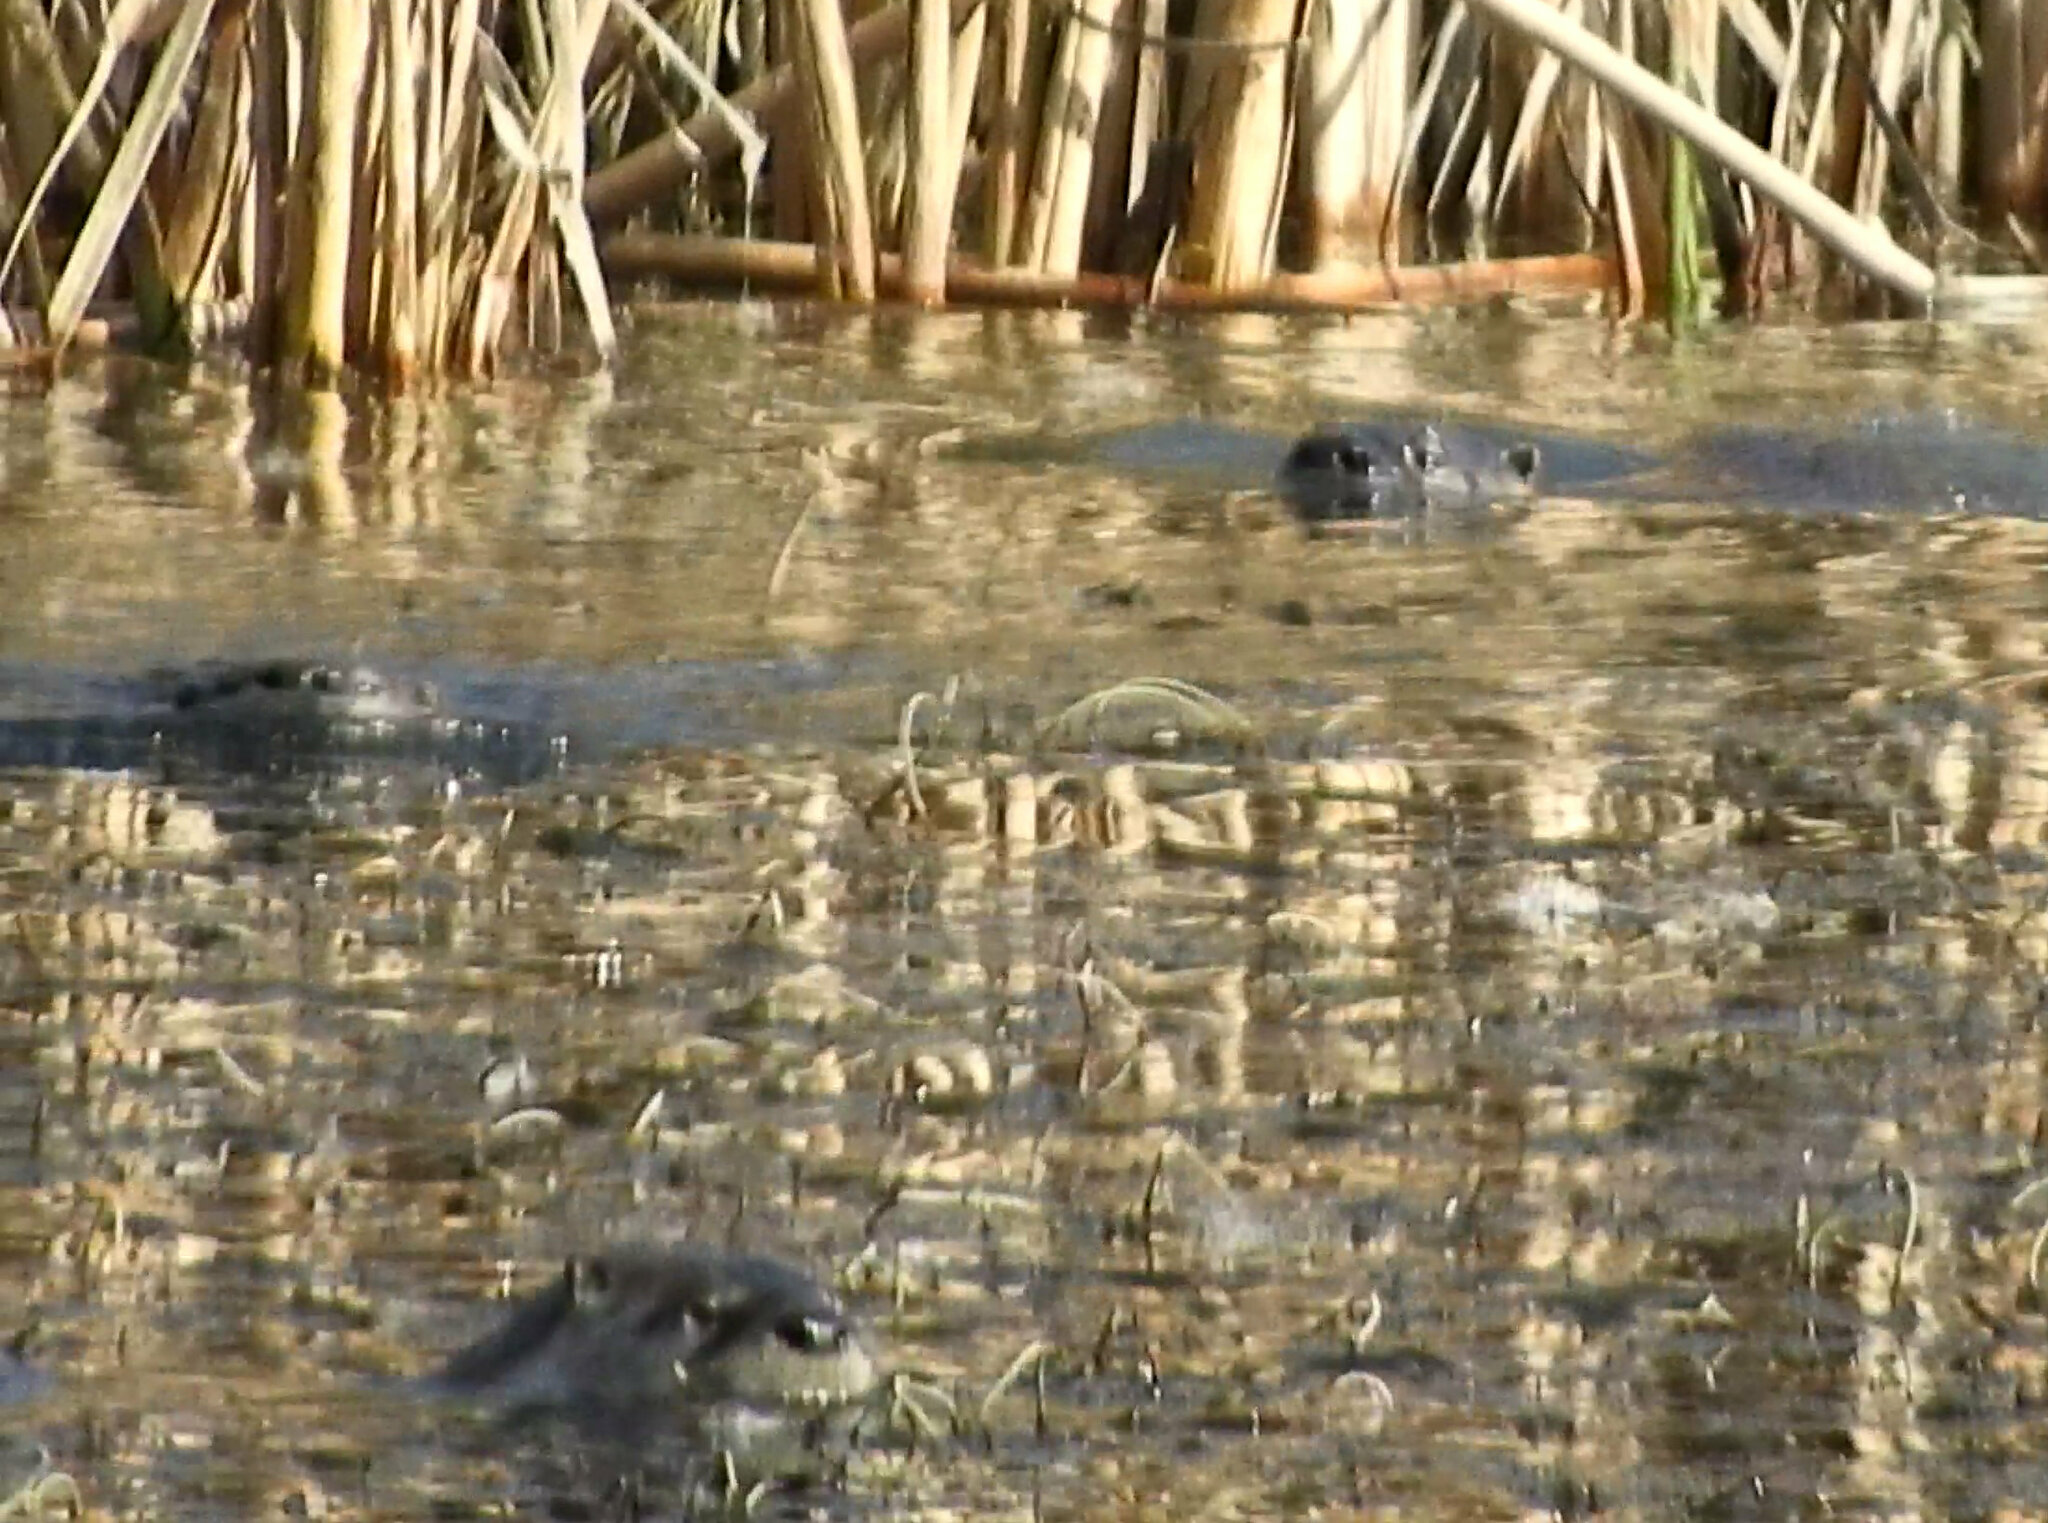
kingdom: Animalia
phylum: Chordata
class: Mammalia
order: Carnivora
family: Mustelidae
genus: Lontra
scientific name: Lontra canadensis
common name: North american river otter
